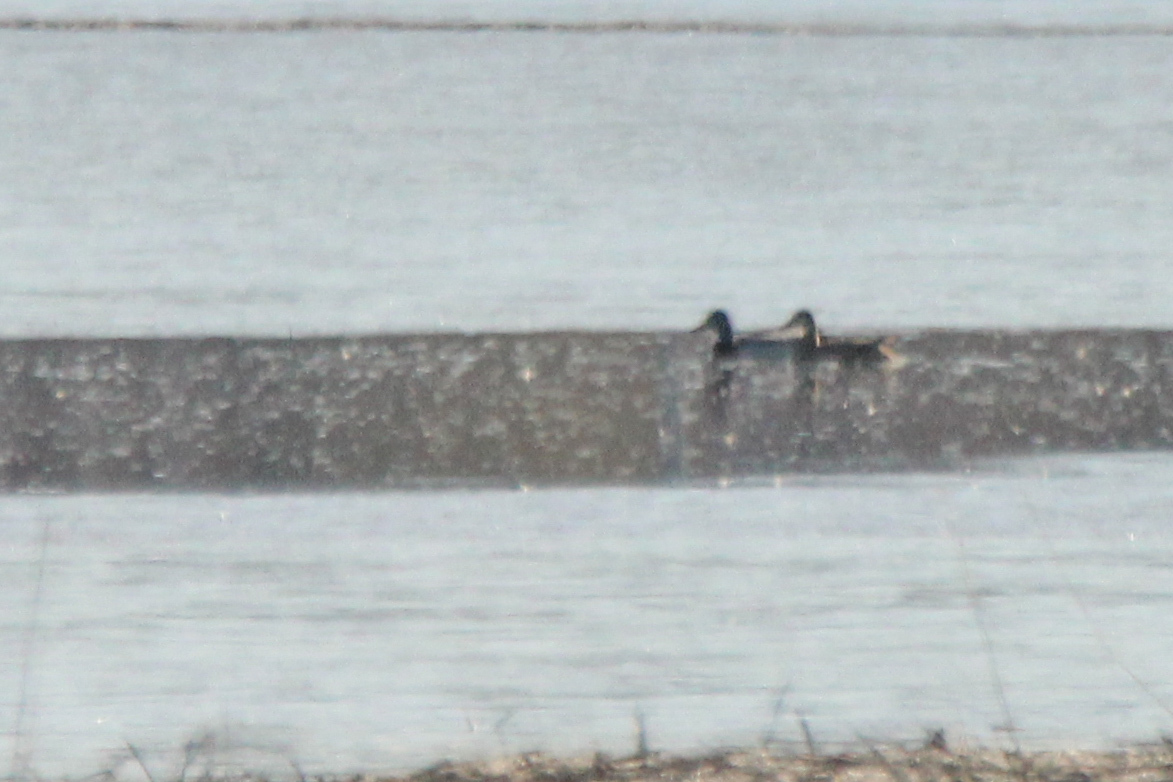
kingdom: Animalia
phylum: Chordata
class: Aves
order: Anseriformes
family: Anatidae
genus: Anas
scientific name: Anas platyrhynchos
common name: Mallard
